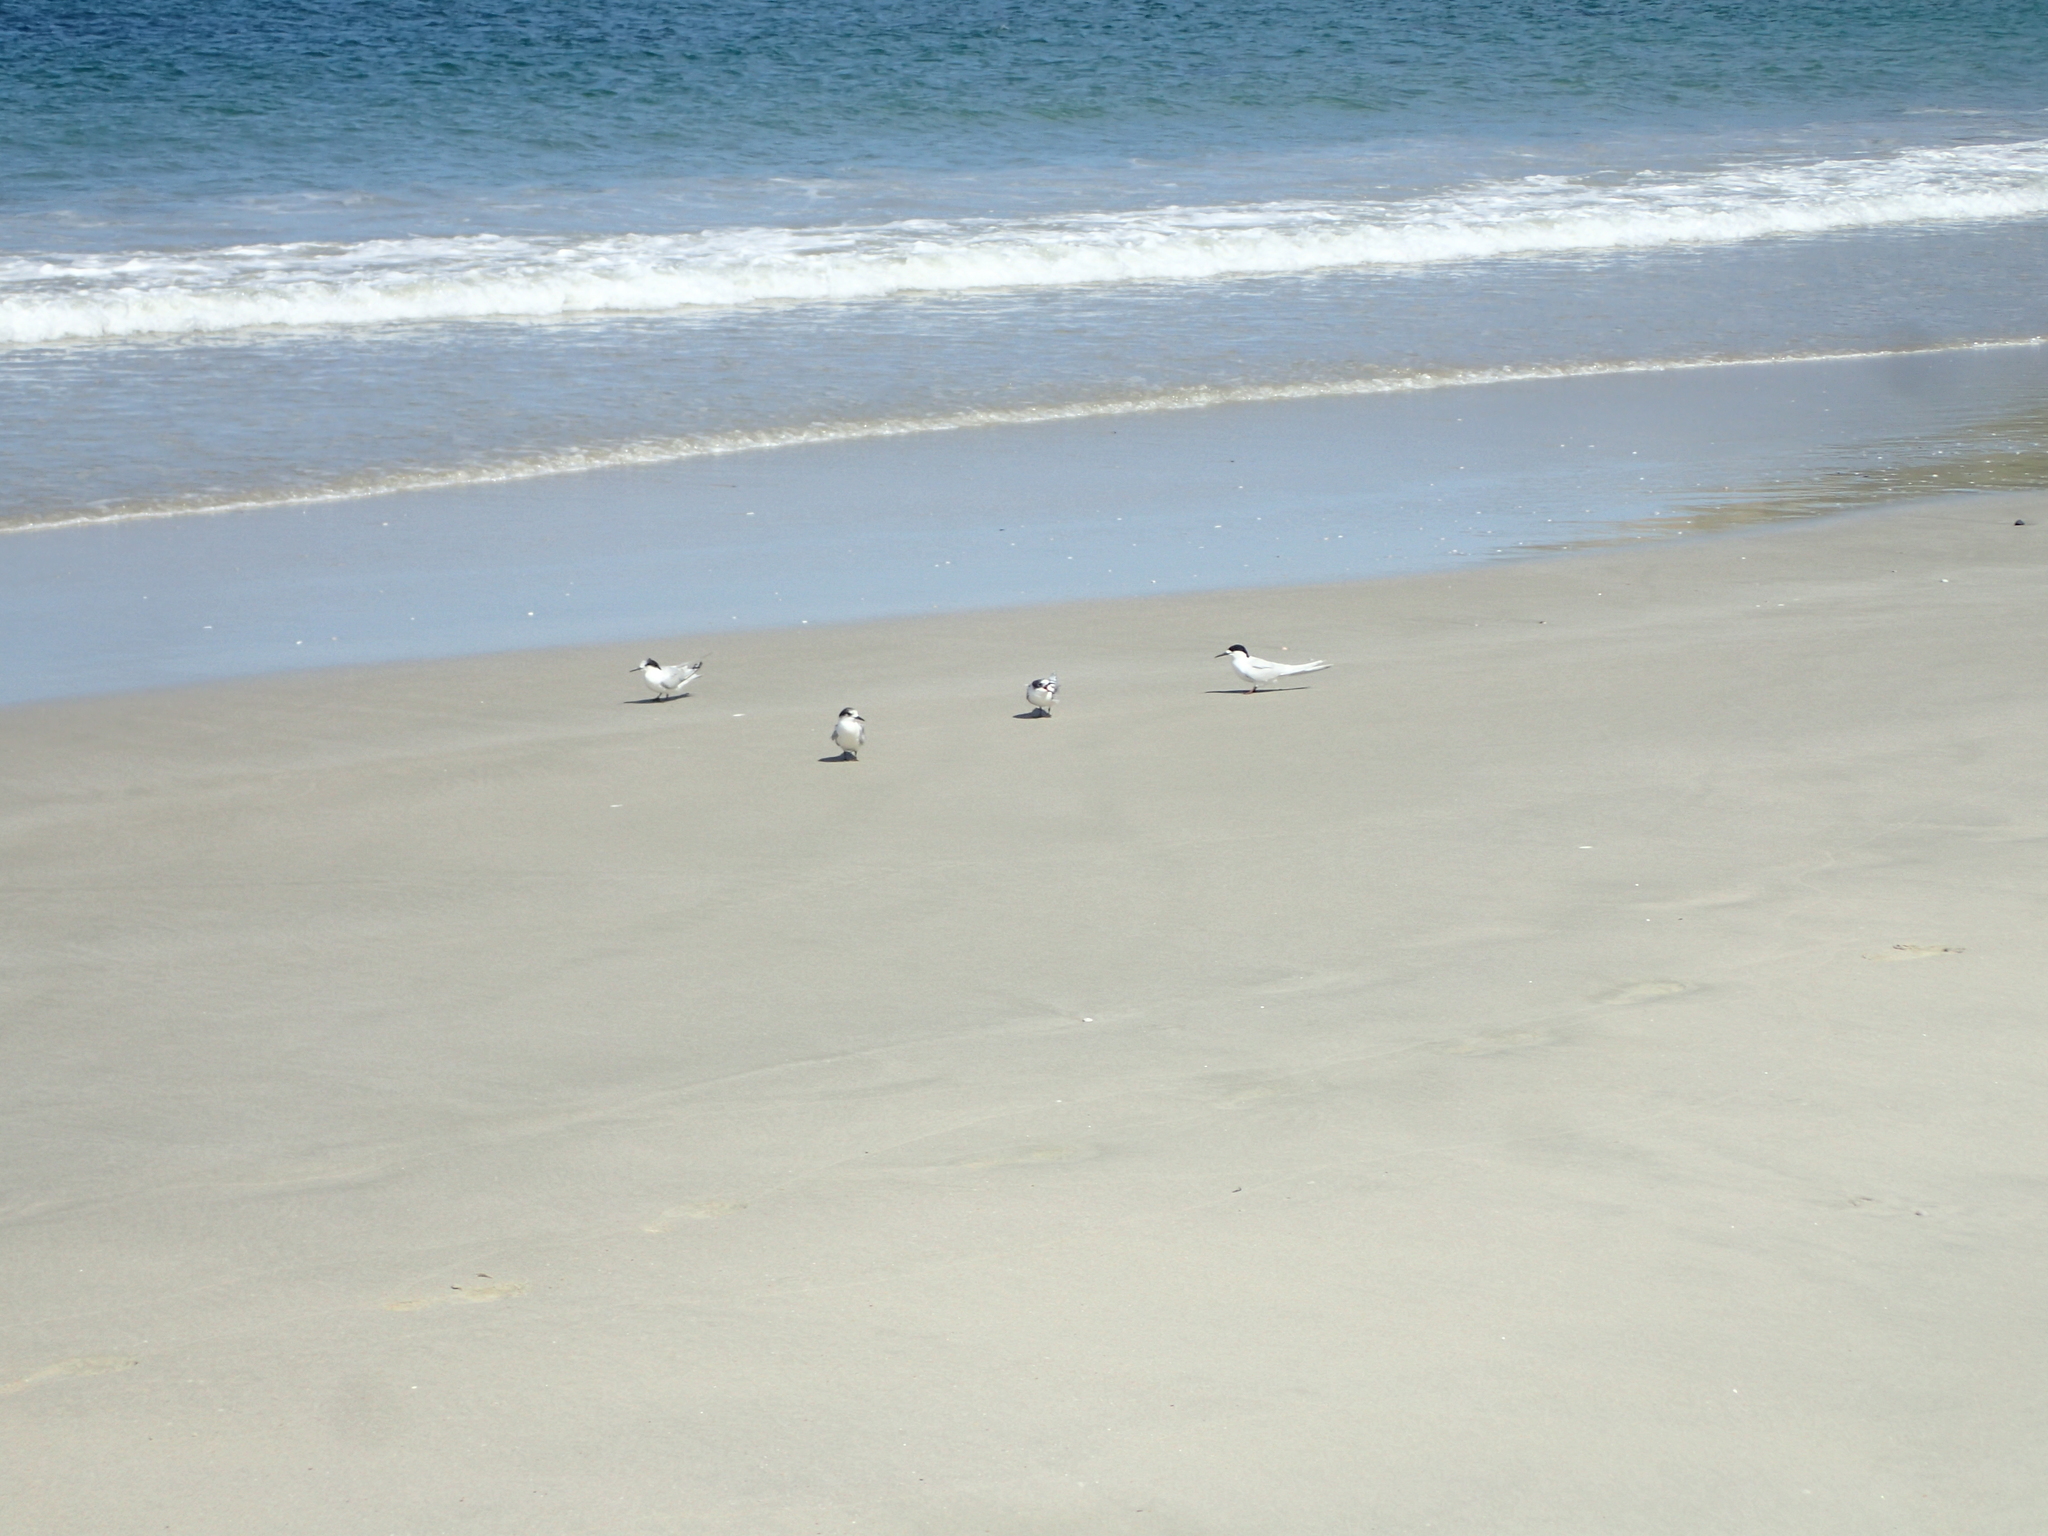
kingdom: Animalia
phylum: Chordata
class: Aves
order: Charadriiformes
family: Laridae
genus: Sterna
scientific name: Sterna striata
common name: White-fronted tern
